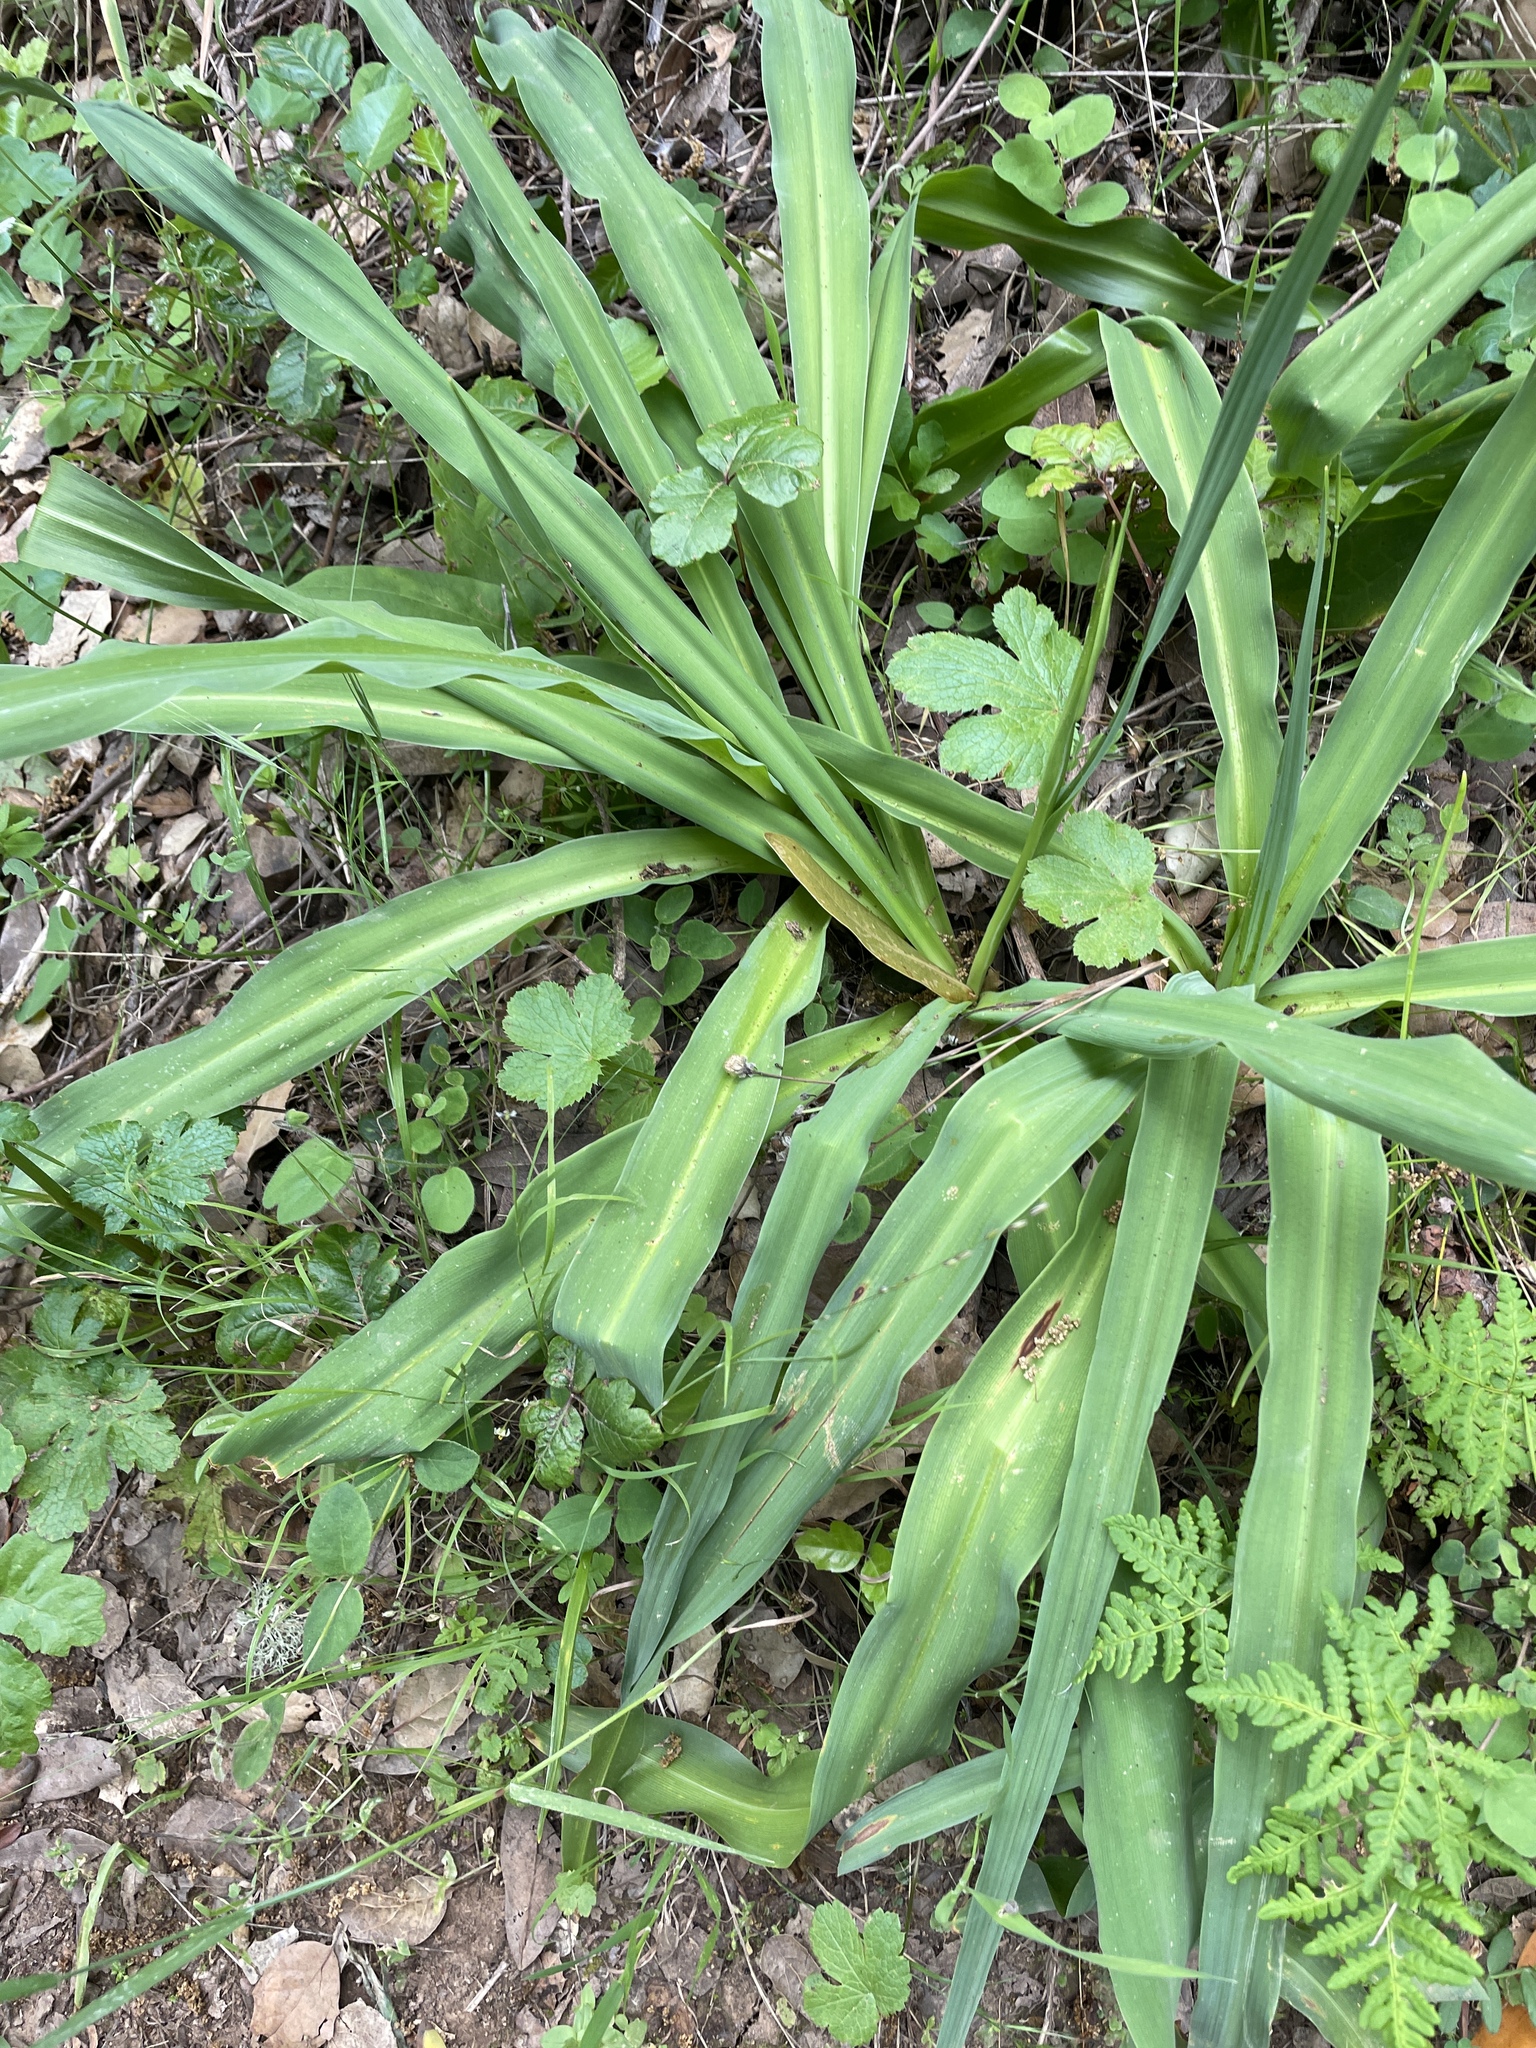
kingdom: Plantae
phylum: Tracheophyta
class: Liliopsida
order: Asparagales
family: Asparagaceae
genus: Chlorogalum
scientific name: Chlorogalum pomeridianum
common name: Amole
